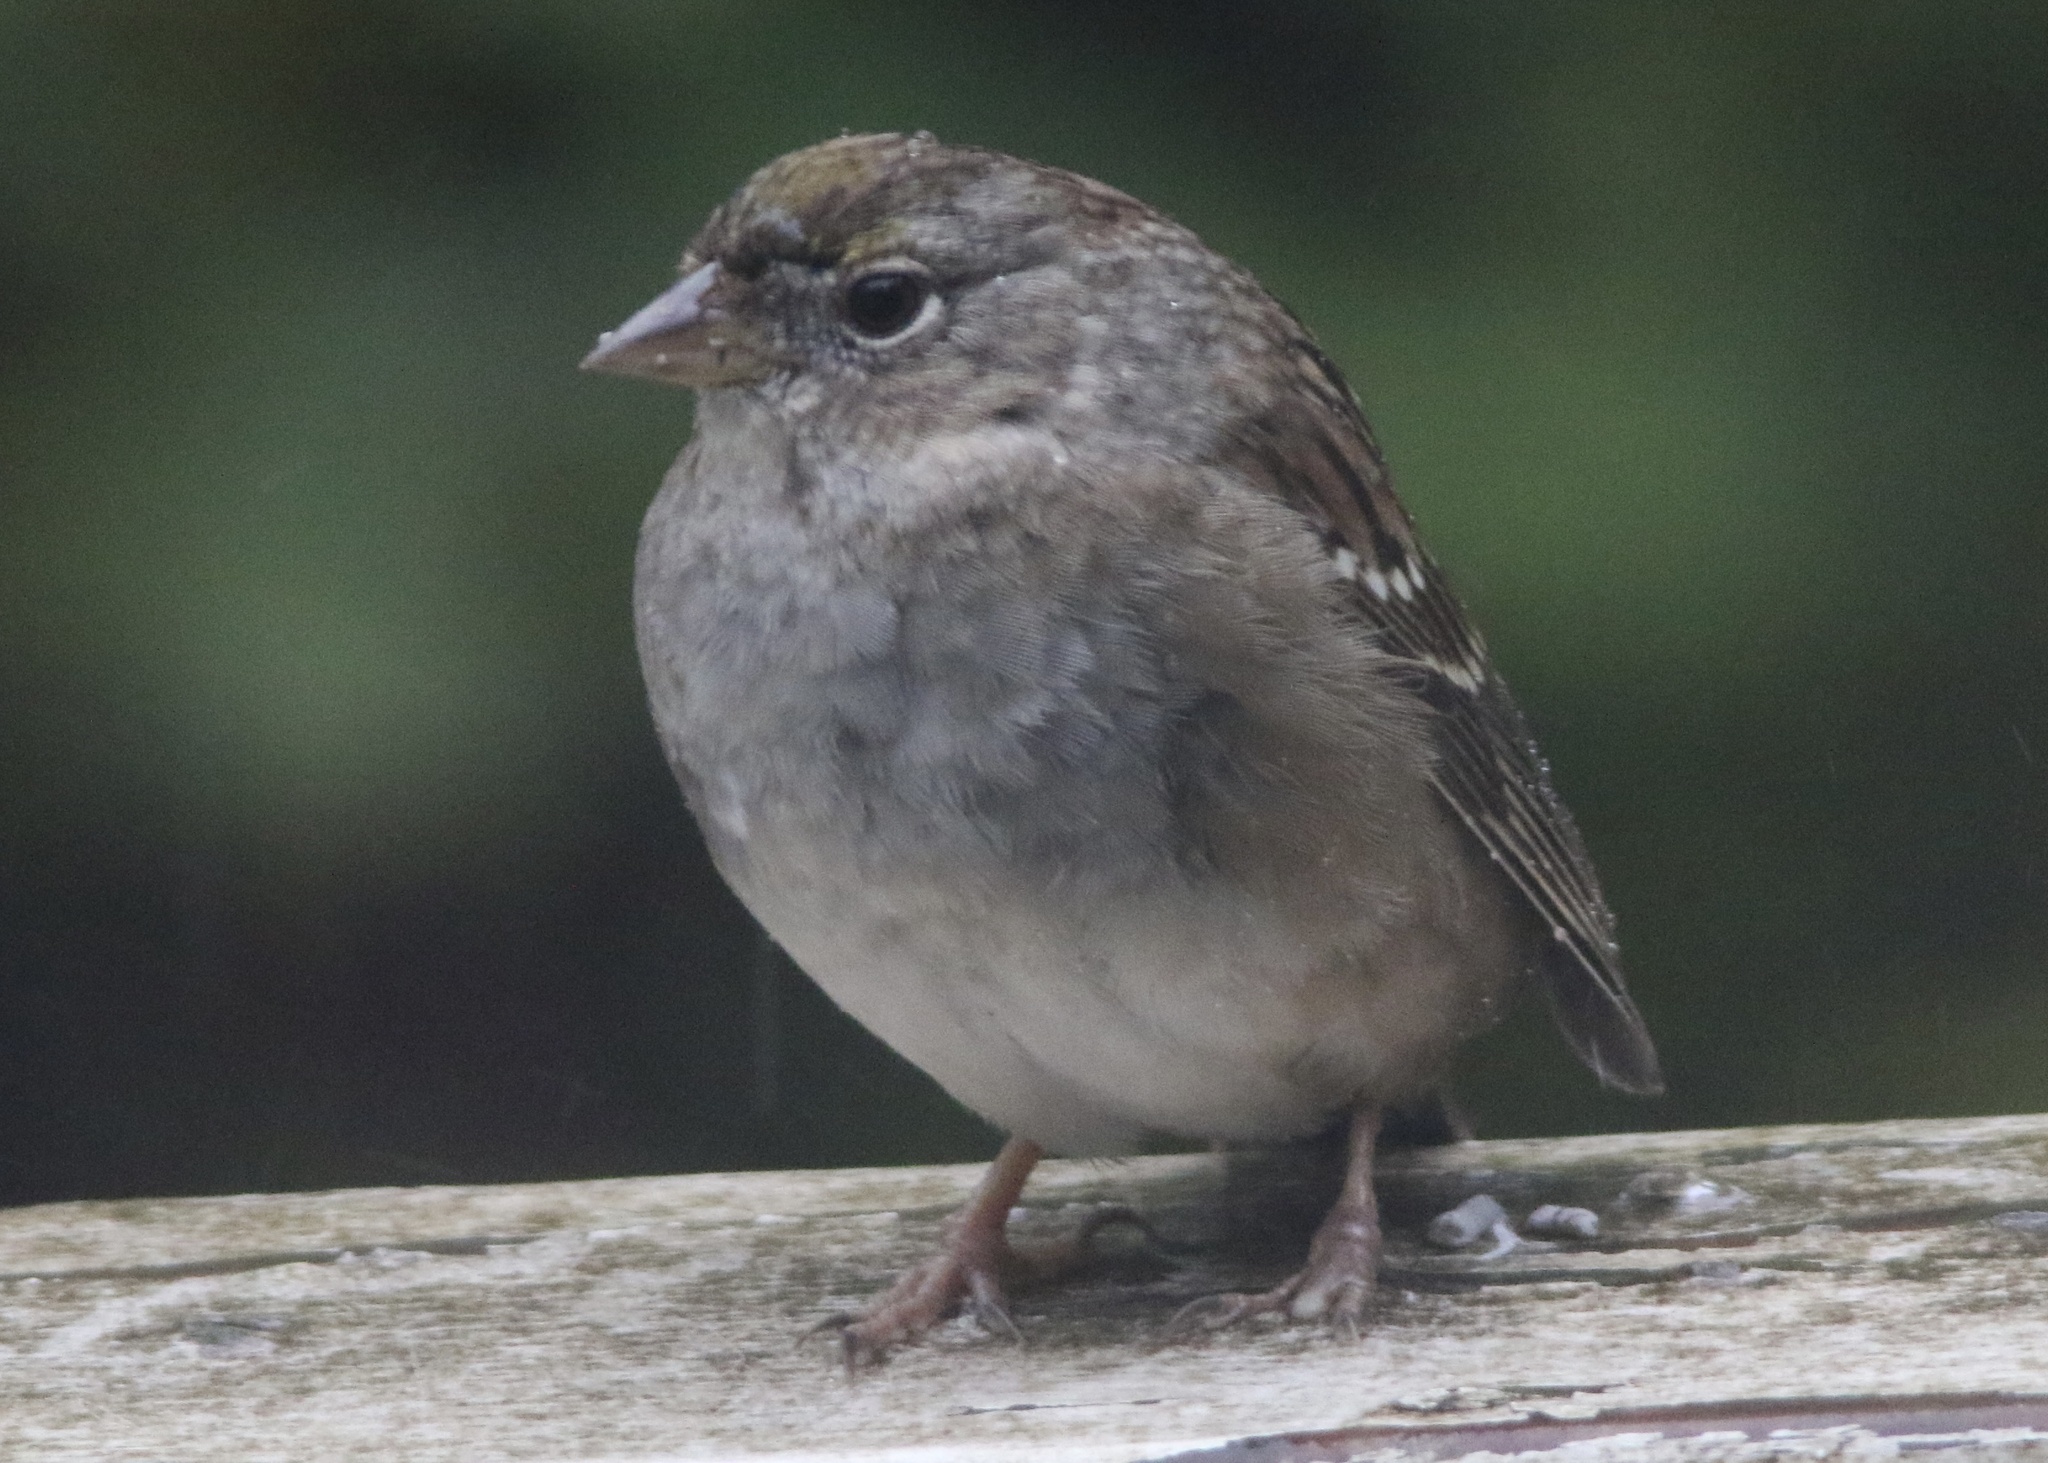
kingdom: Animalia
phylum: Chordata
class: Aves
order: Passeriformes
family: Passerellidae
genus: Zonotrichia
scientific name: Zonotrichia atricapilla
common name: Golden-crowned sparrow
